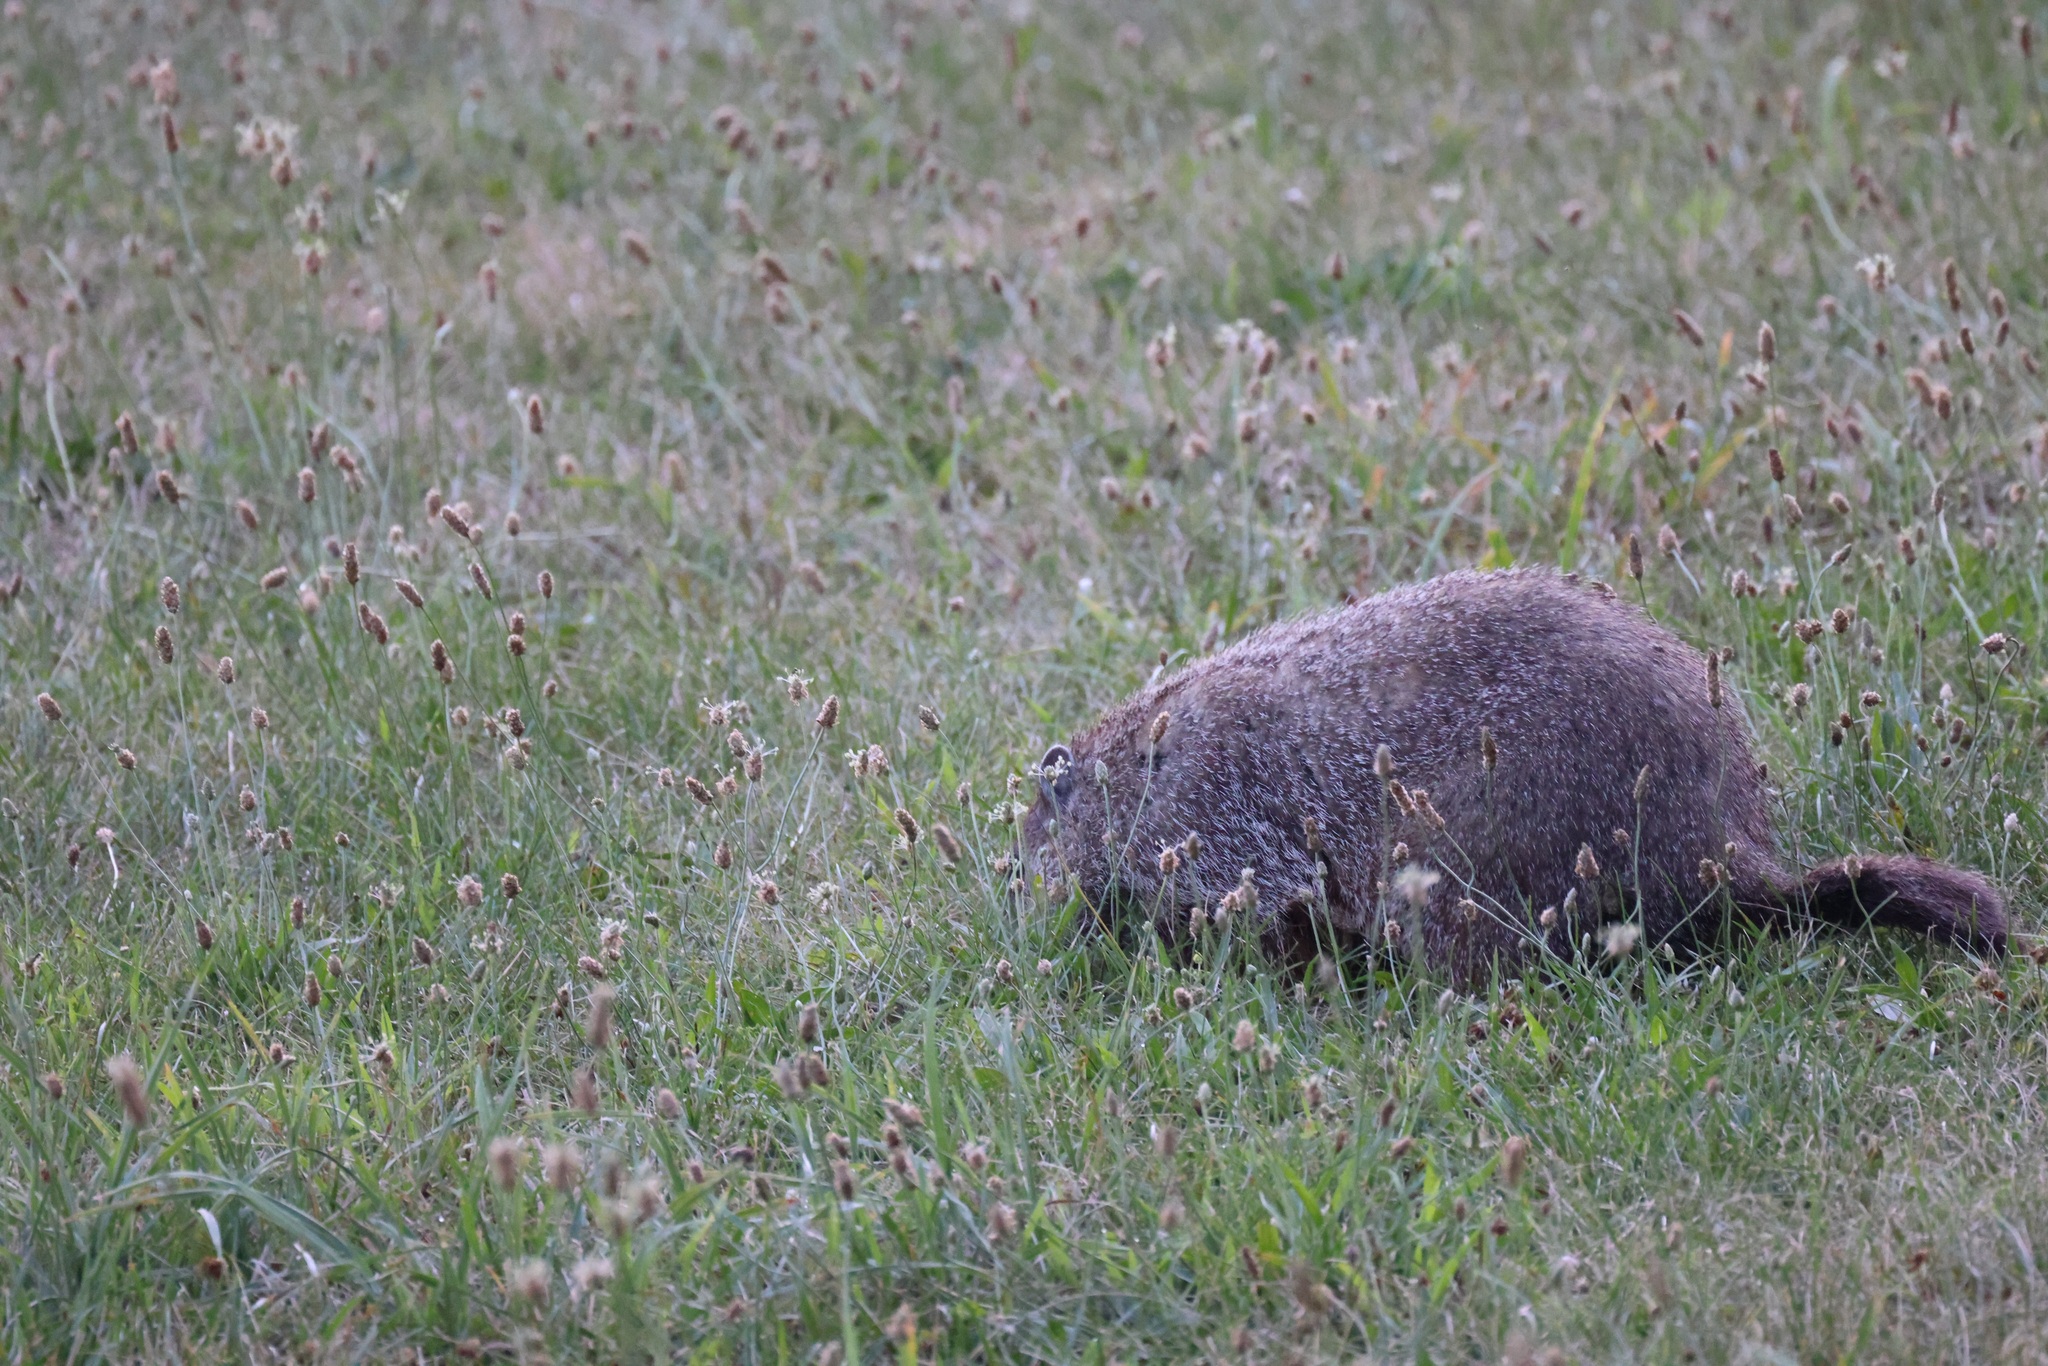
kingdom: Animalia
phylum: Chordata
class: Mammalia
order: Rodentia
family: Sciuridae
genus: Marmota
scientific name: Marmota monax
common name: Groundhog
